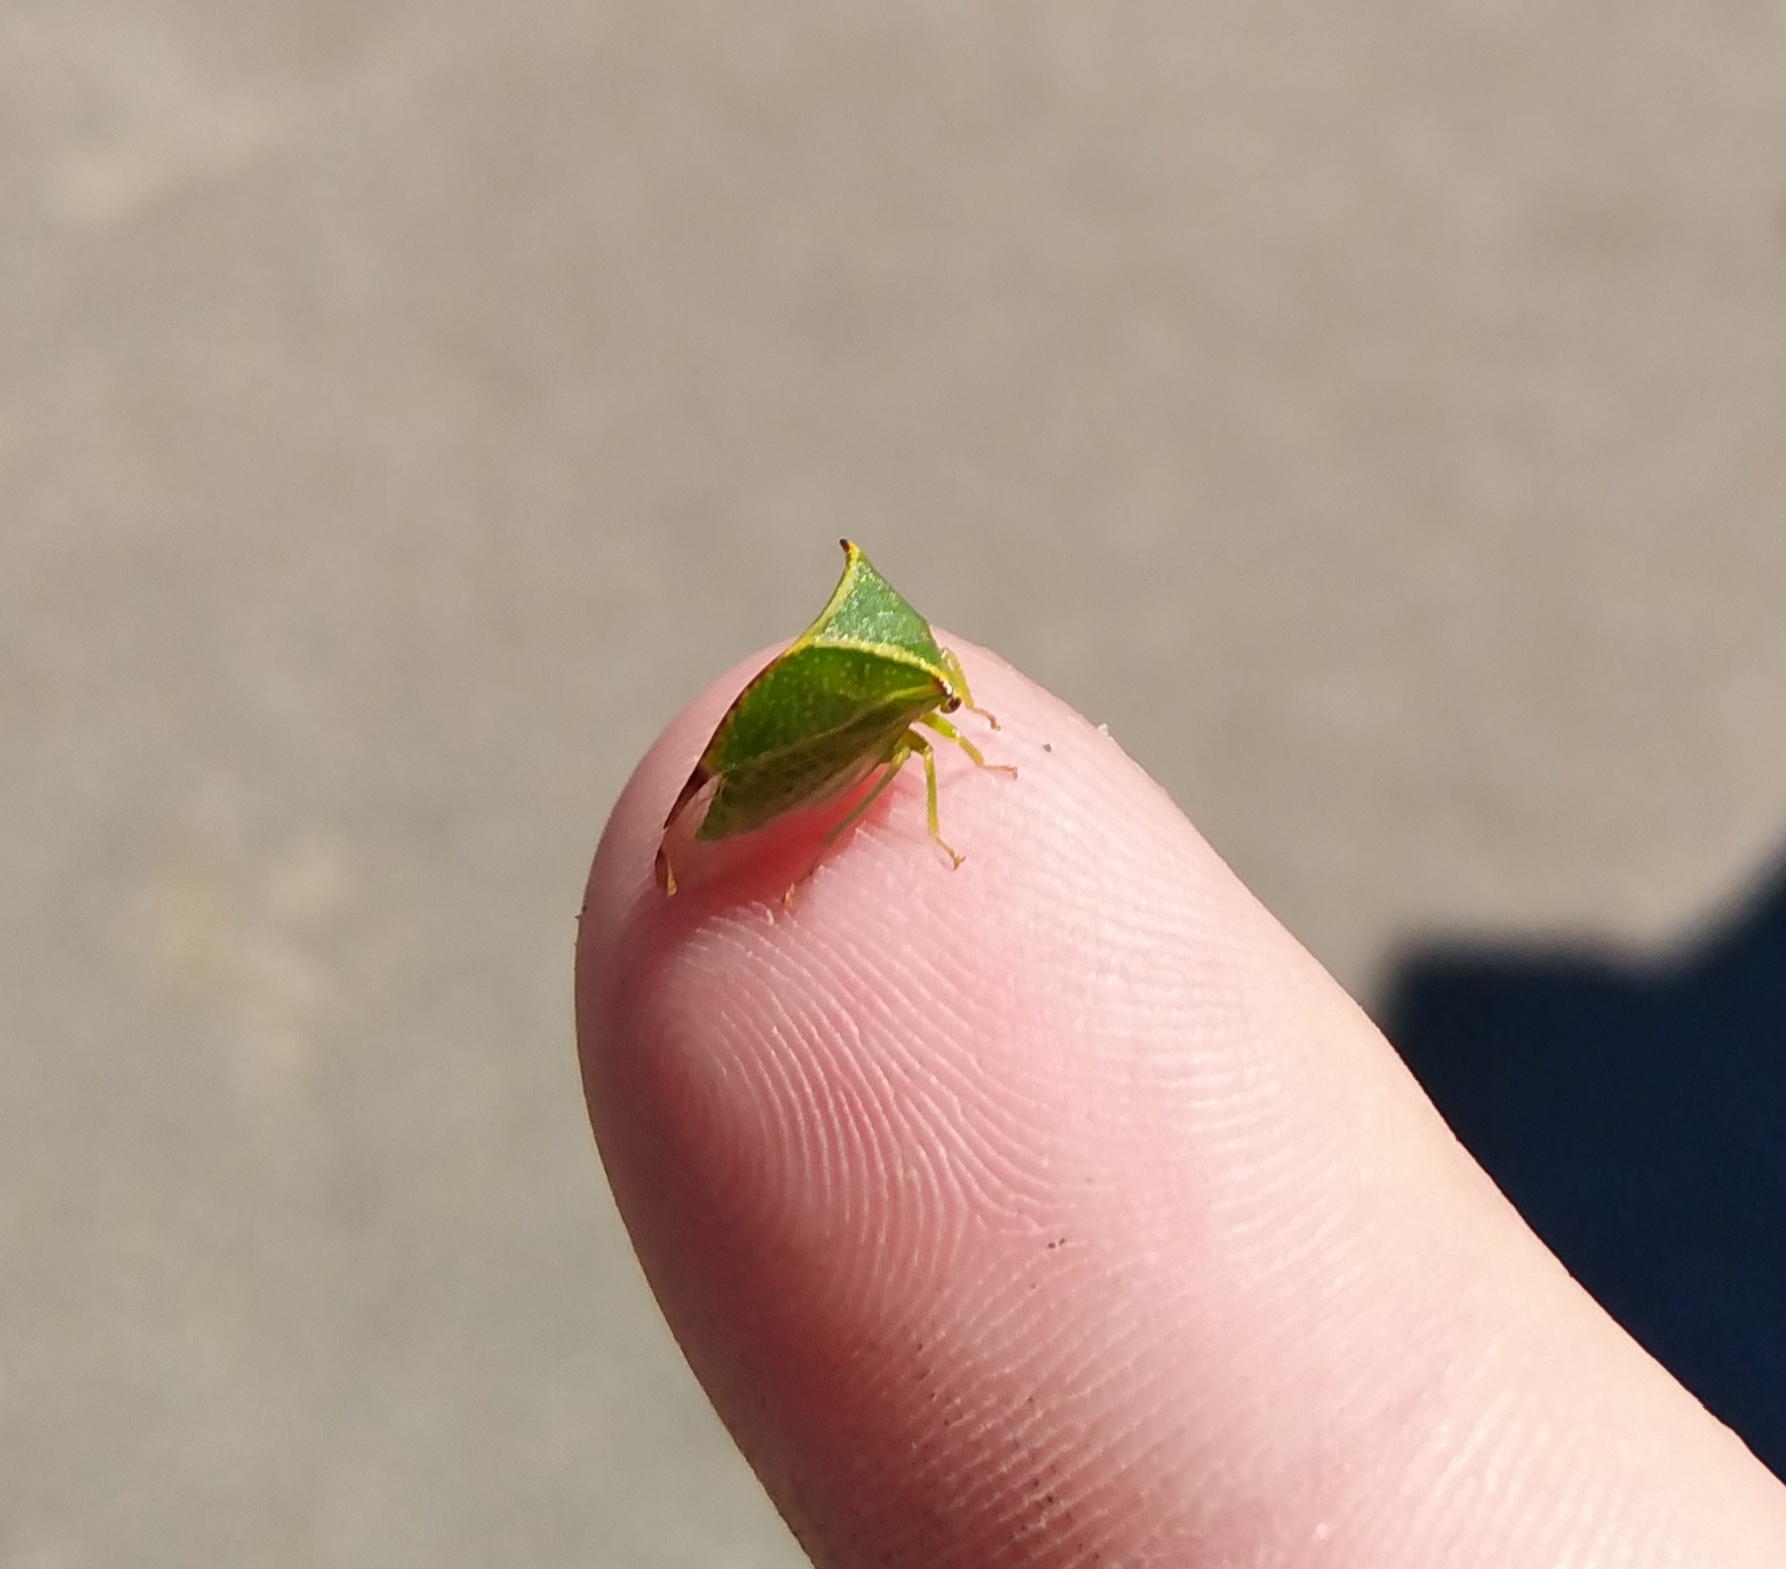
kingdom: Animalia
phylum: Arthropoda
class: Insecta
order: Hemiptera
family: Membracidae
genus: Stictocephala
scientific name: Stictocephala bisonia
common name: American buffalo treehopper
